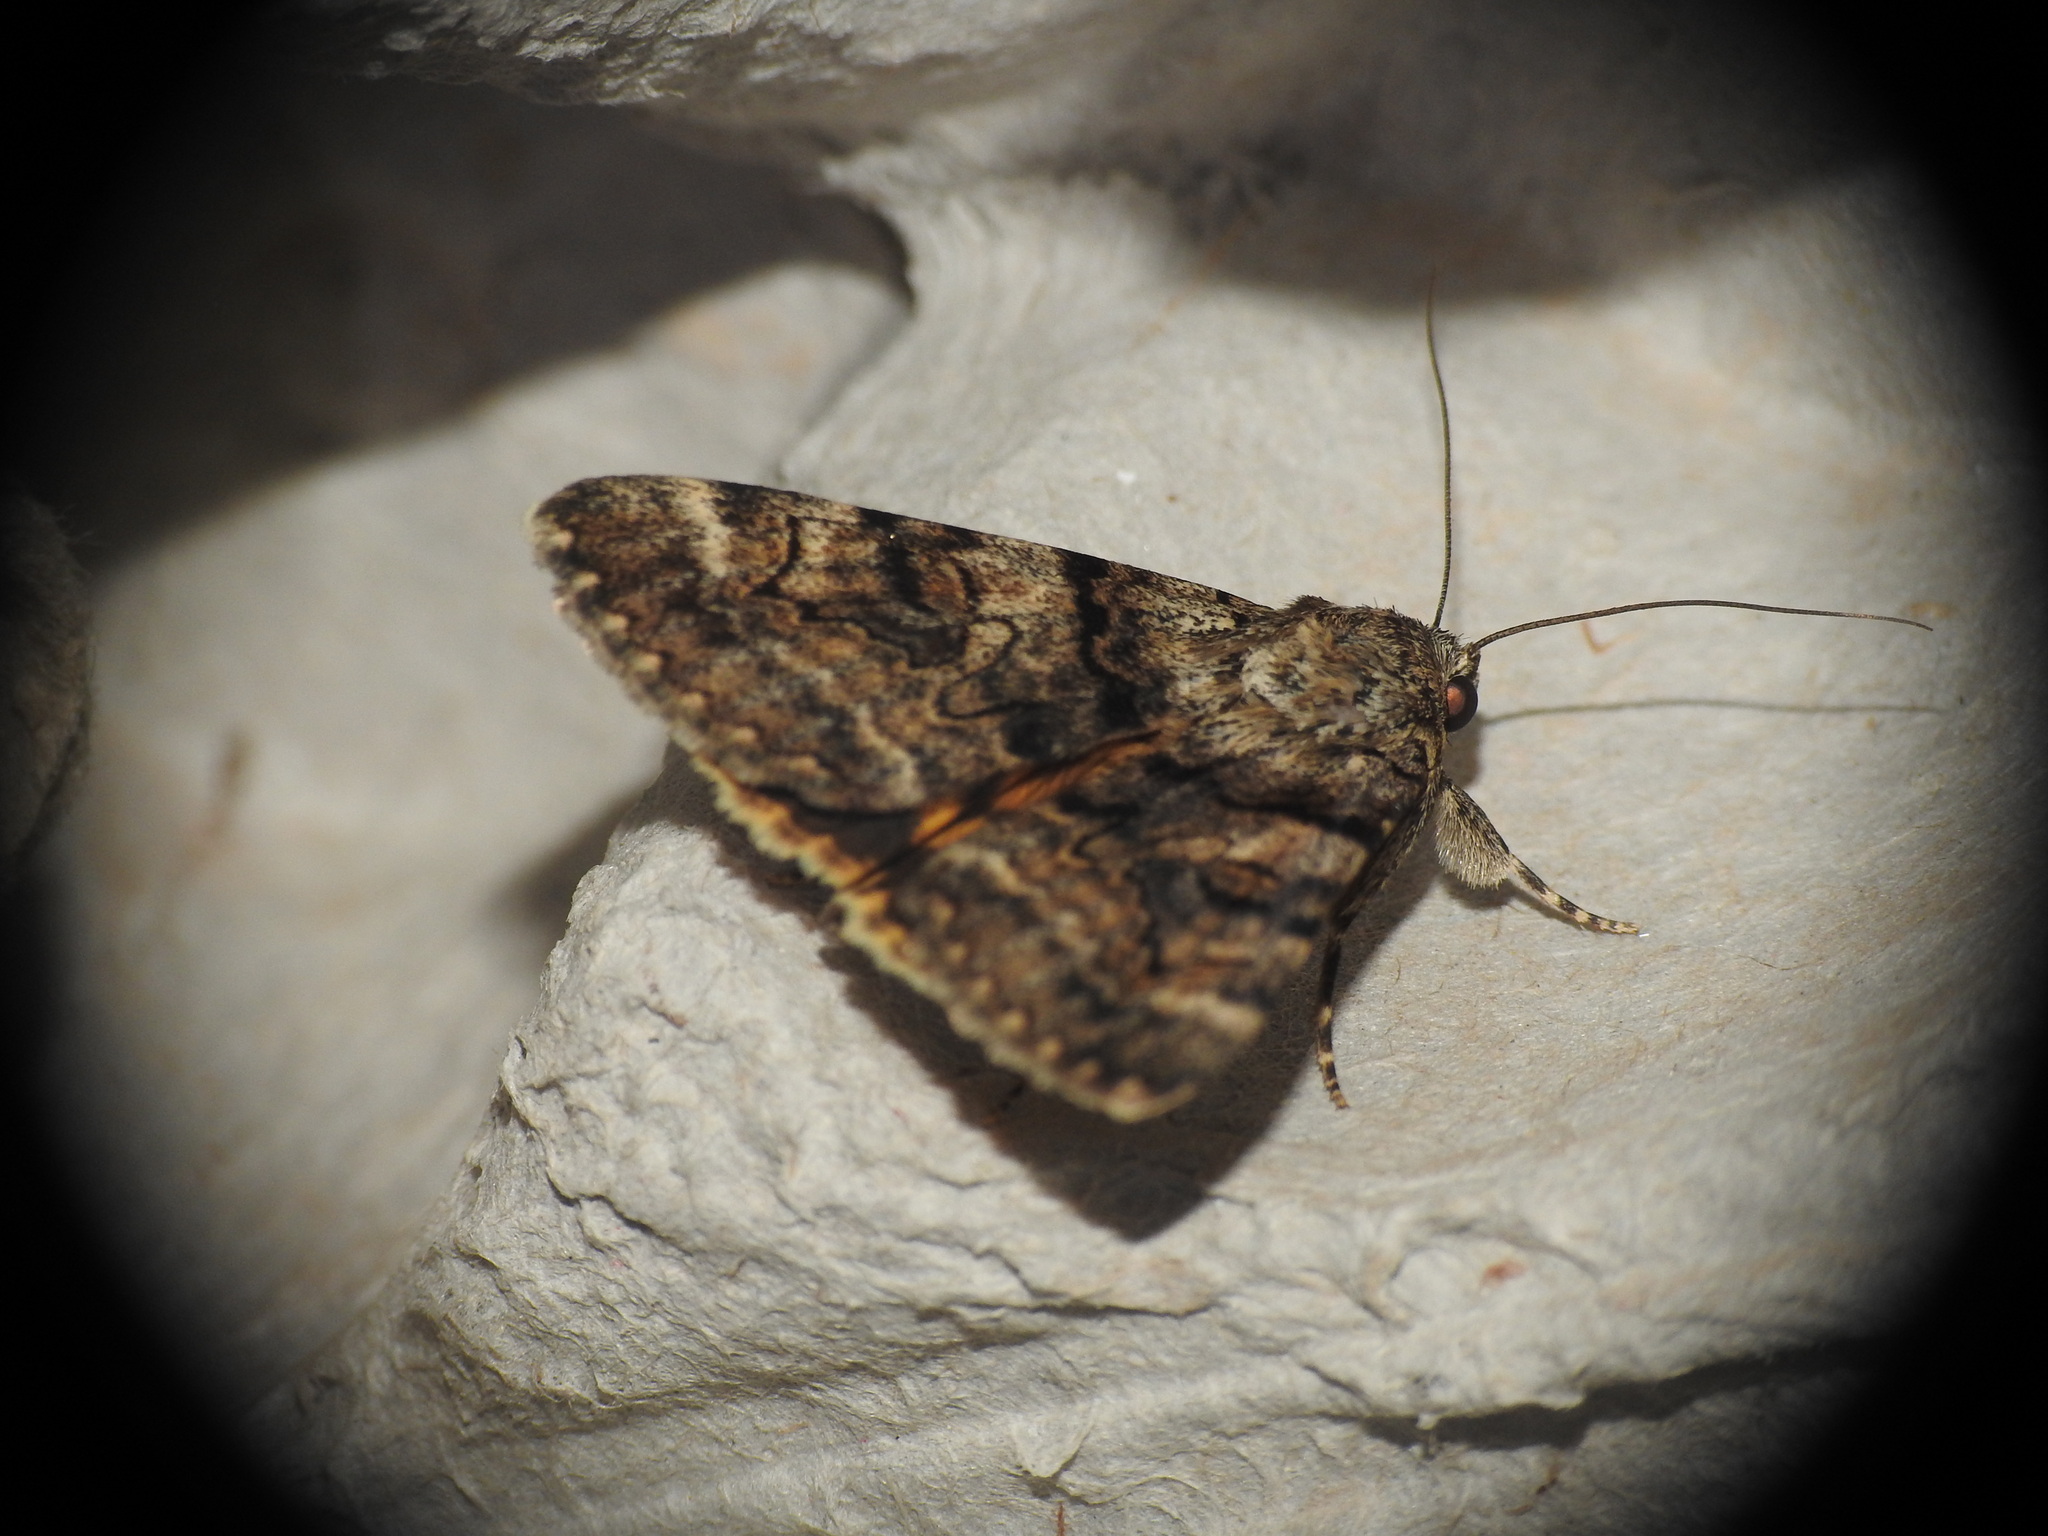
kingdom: Animalia
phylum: Arthropoda
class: Insecta
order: Lepidoptera
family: Erebidae
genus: Catocala
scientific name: Catocala nymphagoga
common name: Oak yellow underwing
